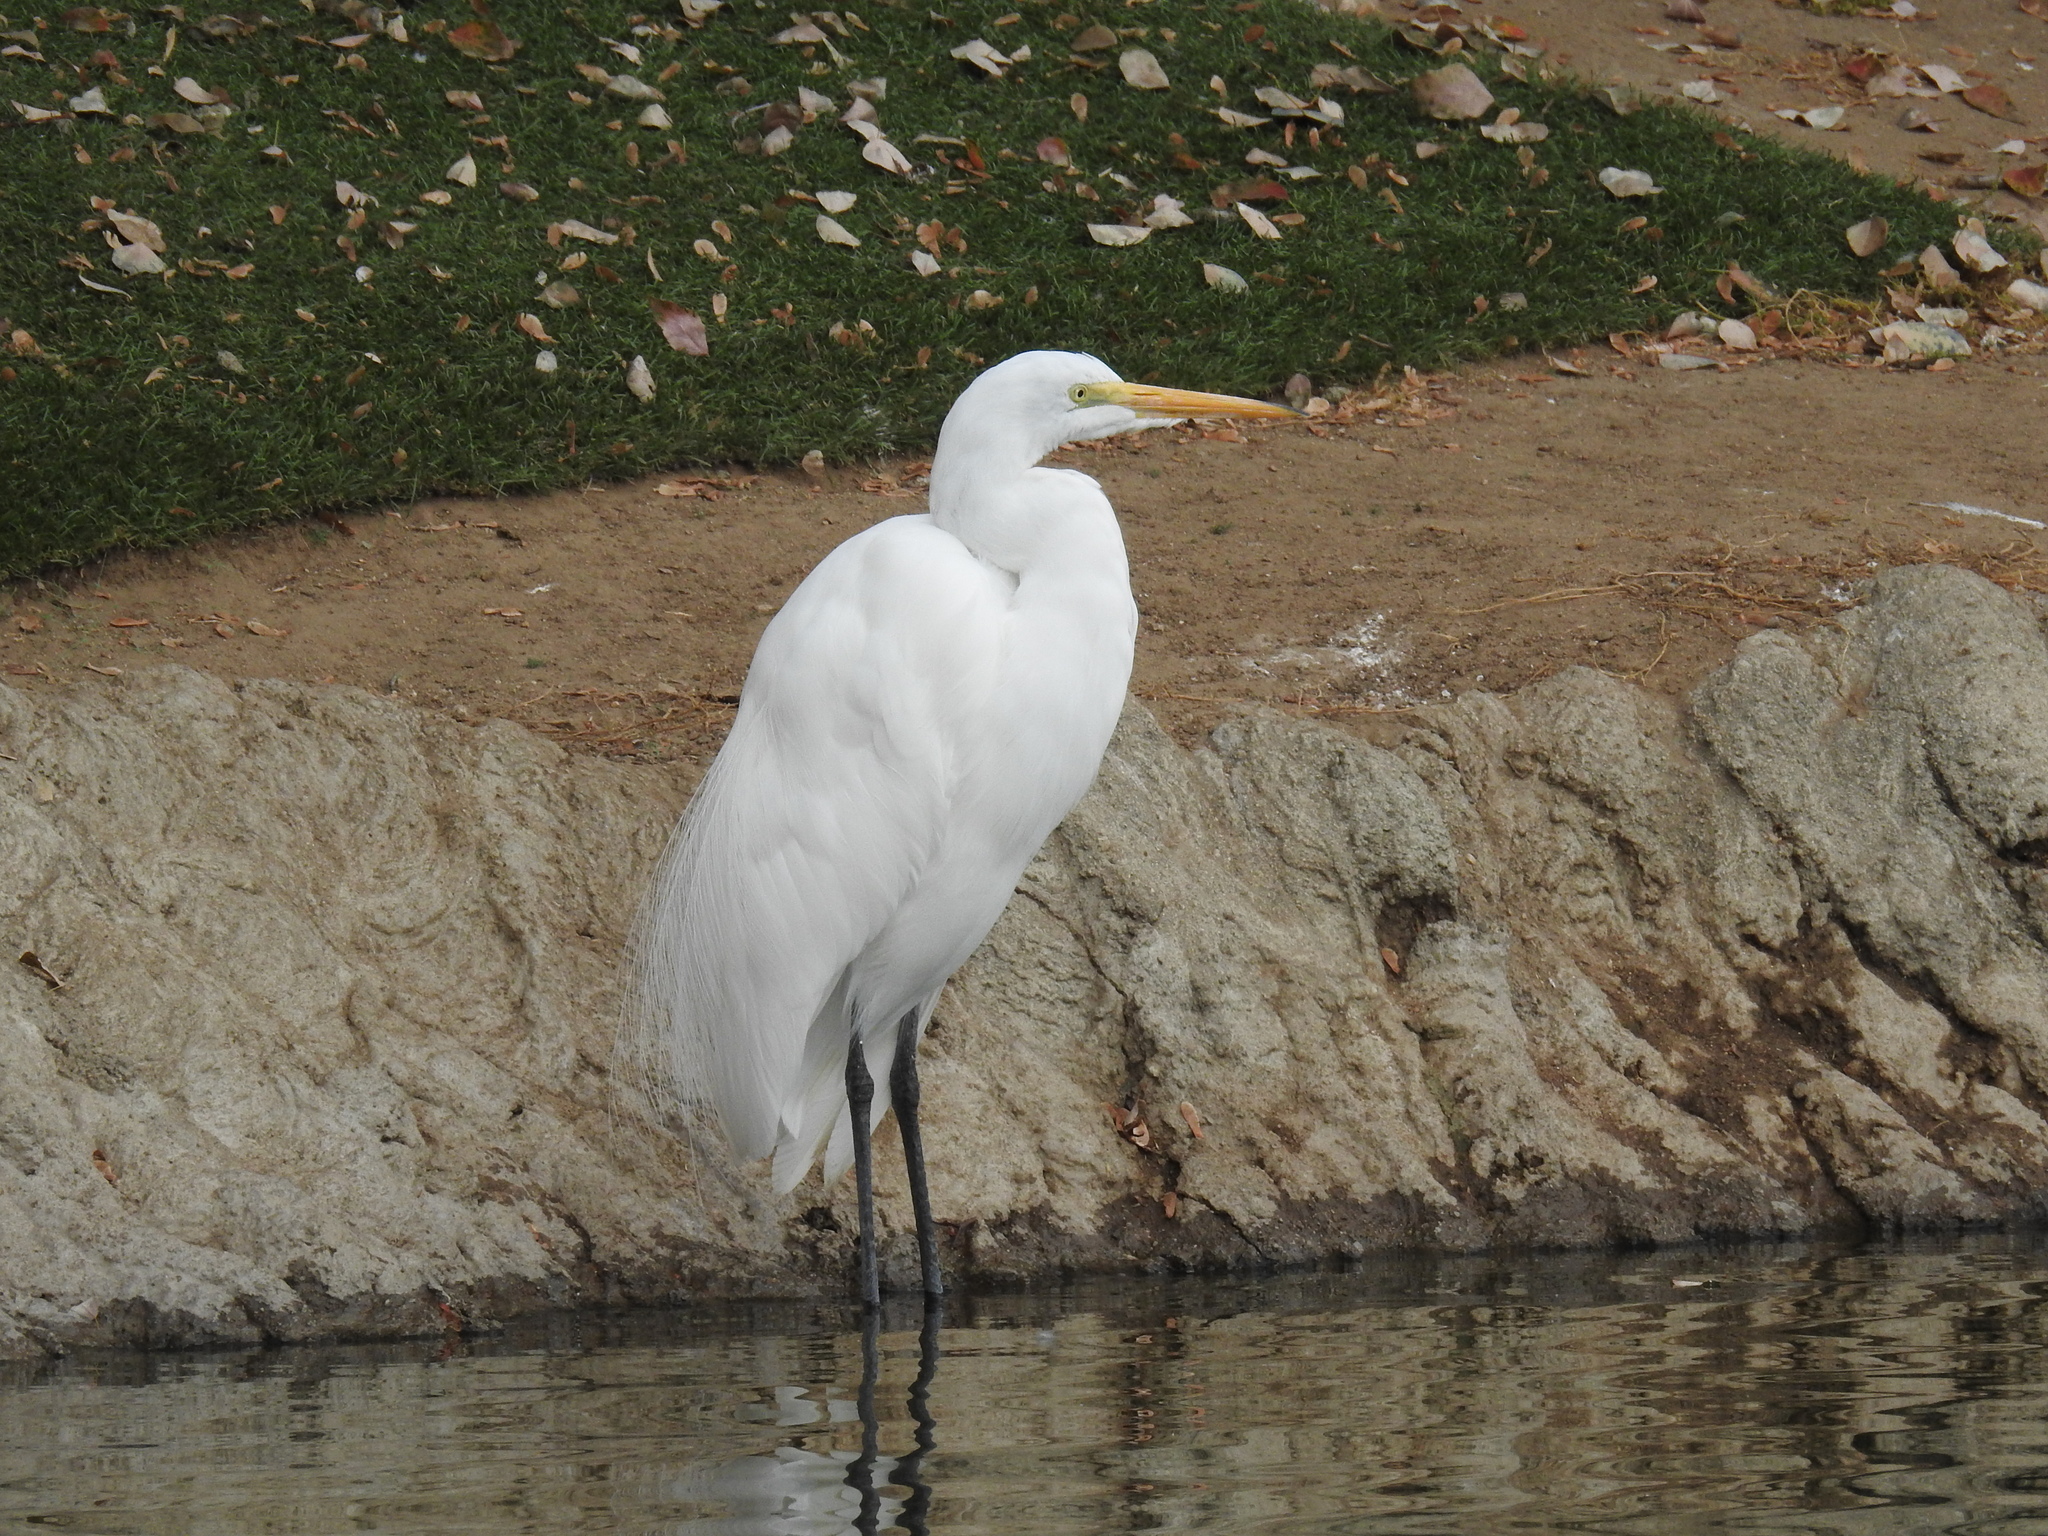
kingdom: Animalia
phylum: Chordata
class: Aves
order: Pelecaniformes
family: Ardeidae
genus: Ardea
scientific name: Ardea alba
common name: Great egret
